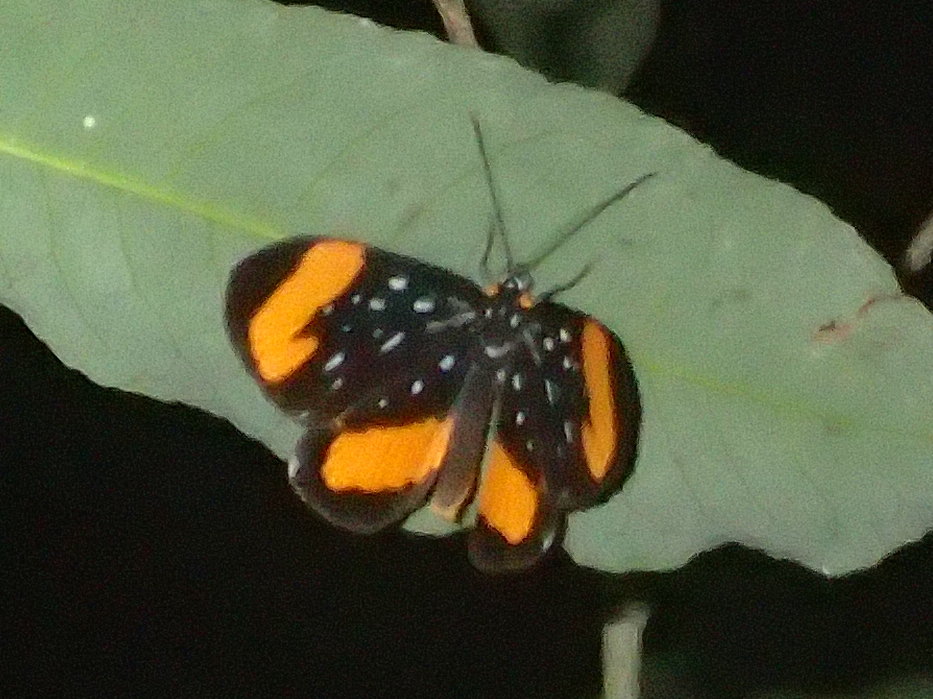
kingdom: Animalia
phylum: Arthropoda
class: Insecta
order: Lepidoptera
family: Riodinidae
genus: Stalachtis
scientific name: Stalachtis euterpe
